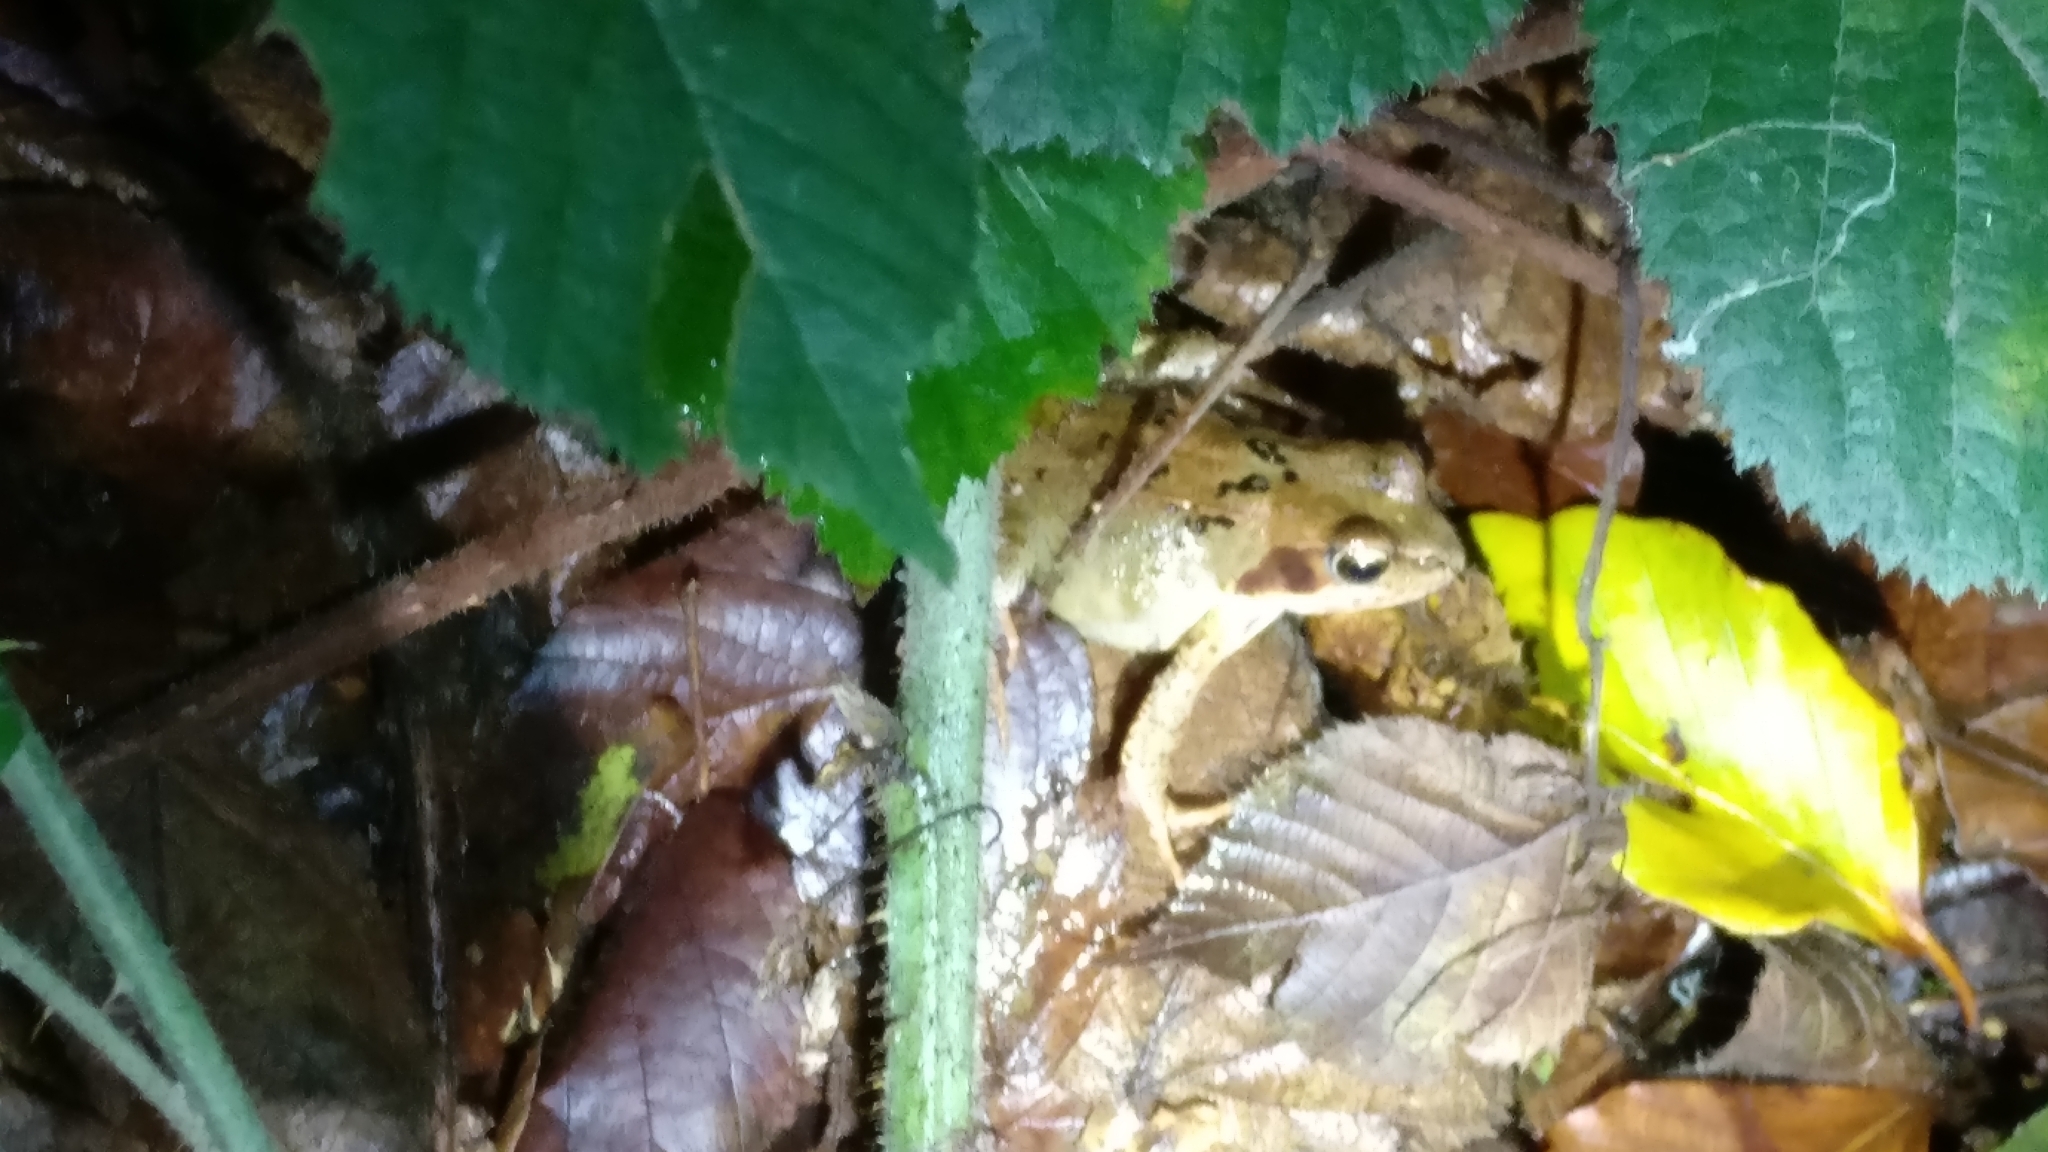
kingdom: Animalia
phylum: Chordata
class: Amphibia
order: Anura
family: Ranidae
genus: Rana
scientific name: Rana temporaria
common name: Common frog
